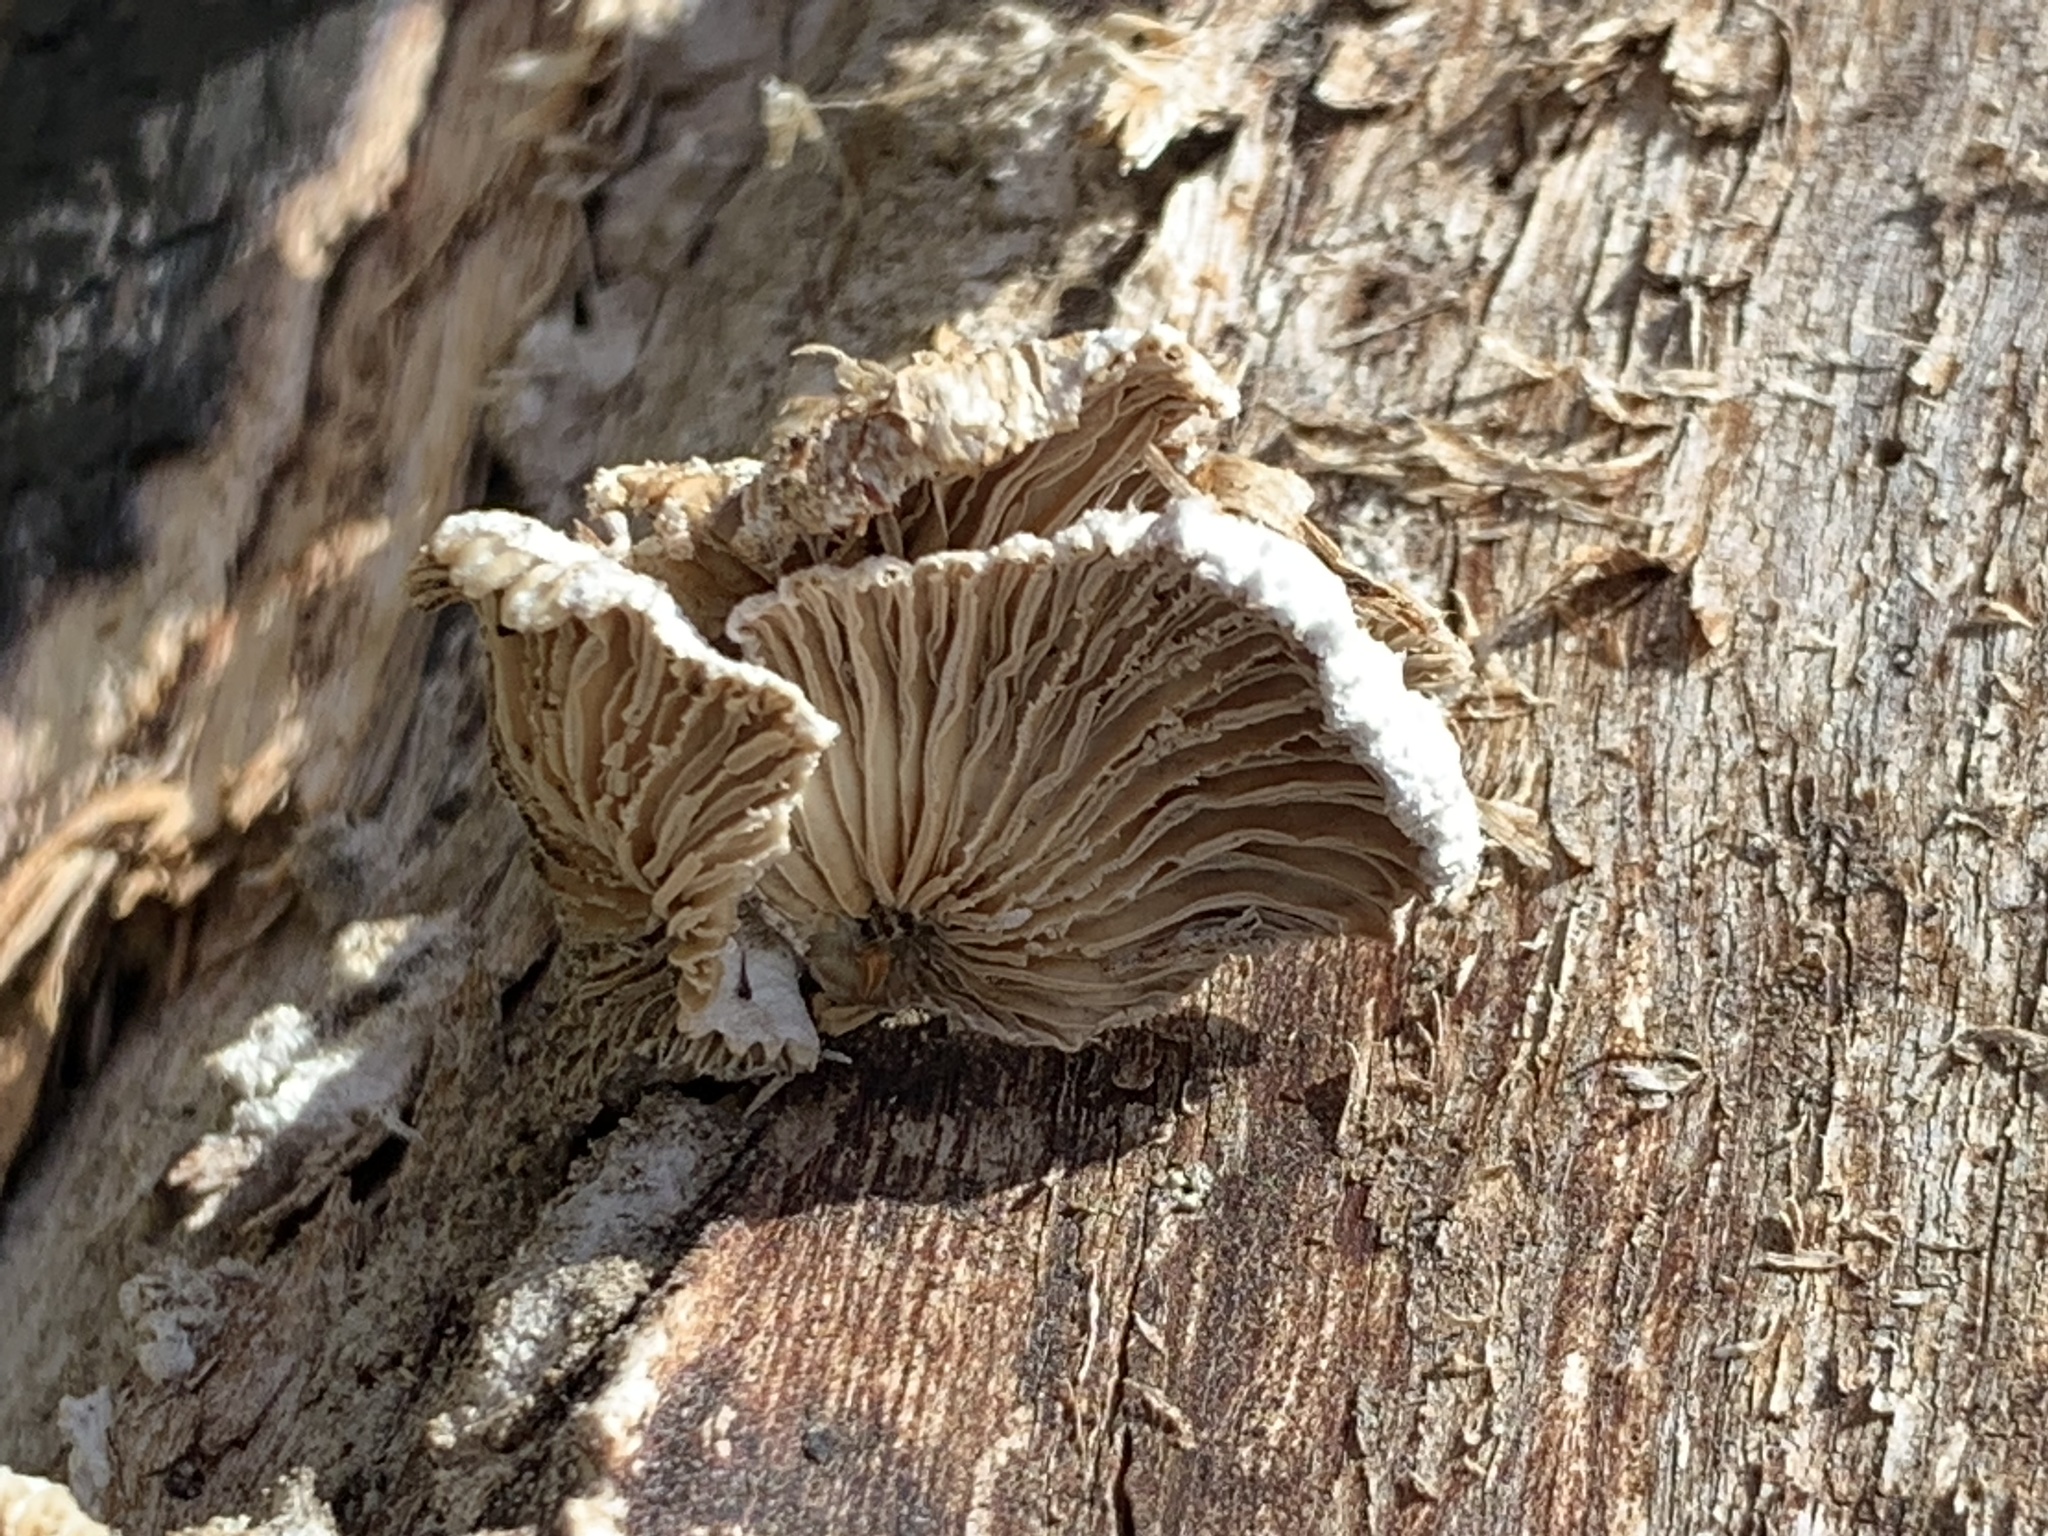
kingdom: Fungi
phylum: Basidiomycota
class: Agaricomycetes
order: Agaricales
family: Schizophyllaceae
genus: Schizophyllum
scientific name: Schizophyllum commune
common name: Common porecrust
